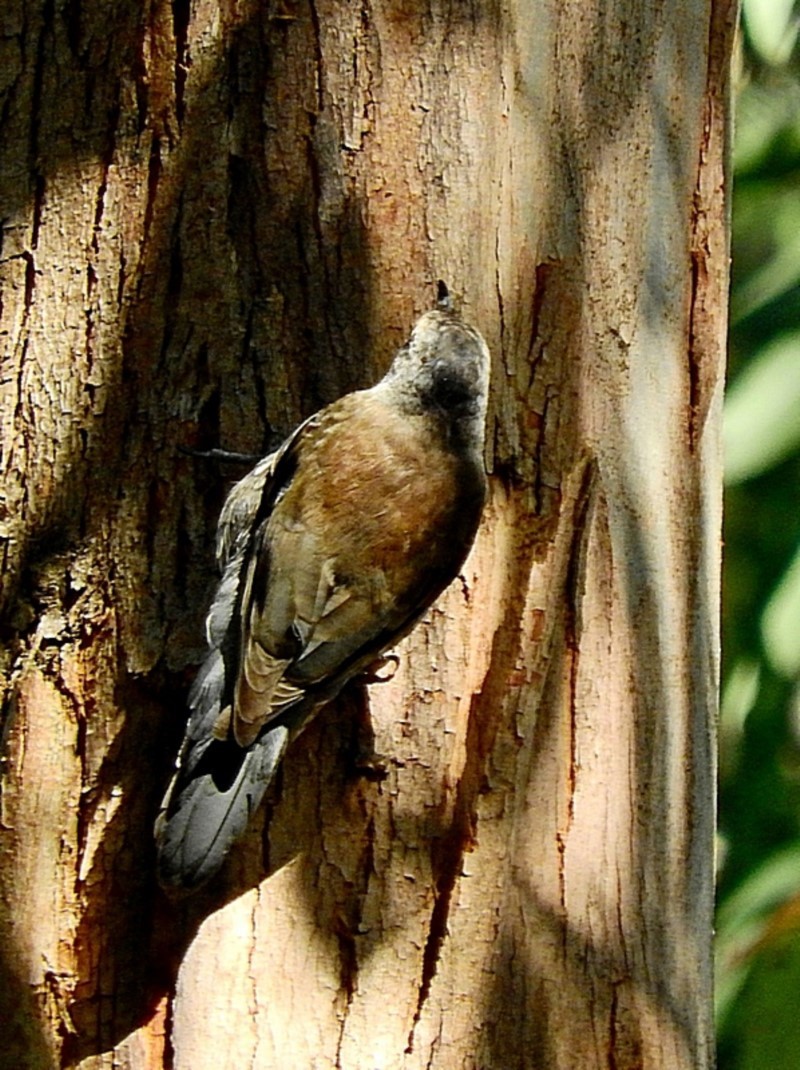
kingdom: Animalia
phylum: Chordata
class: Aves
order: Passeriformes
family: Climacteridae
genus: Cormobates
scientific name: Cormobates leucophaea
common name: White-throated treecreeper
